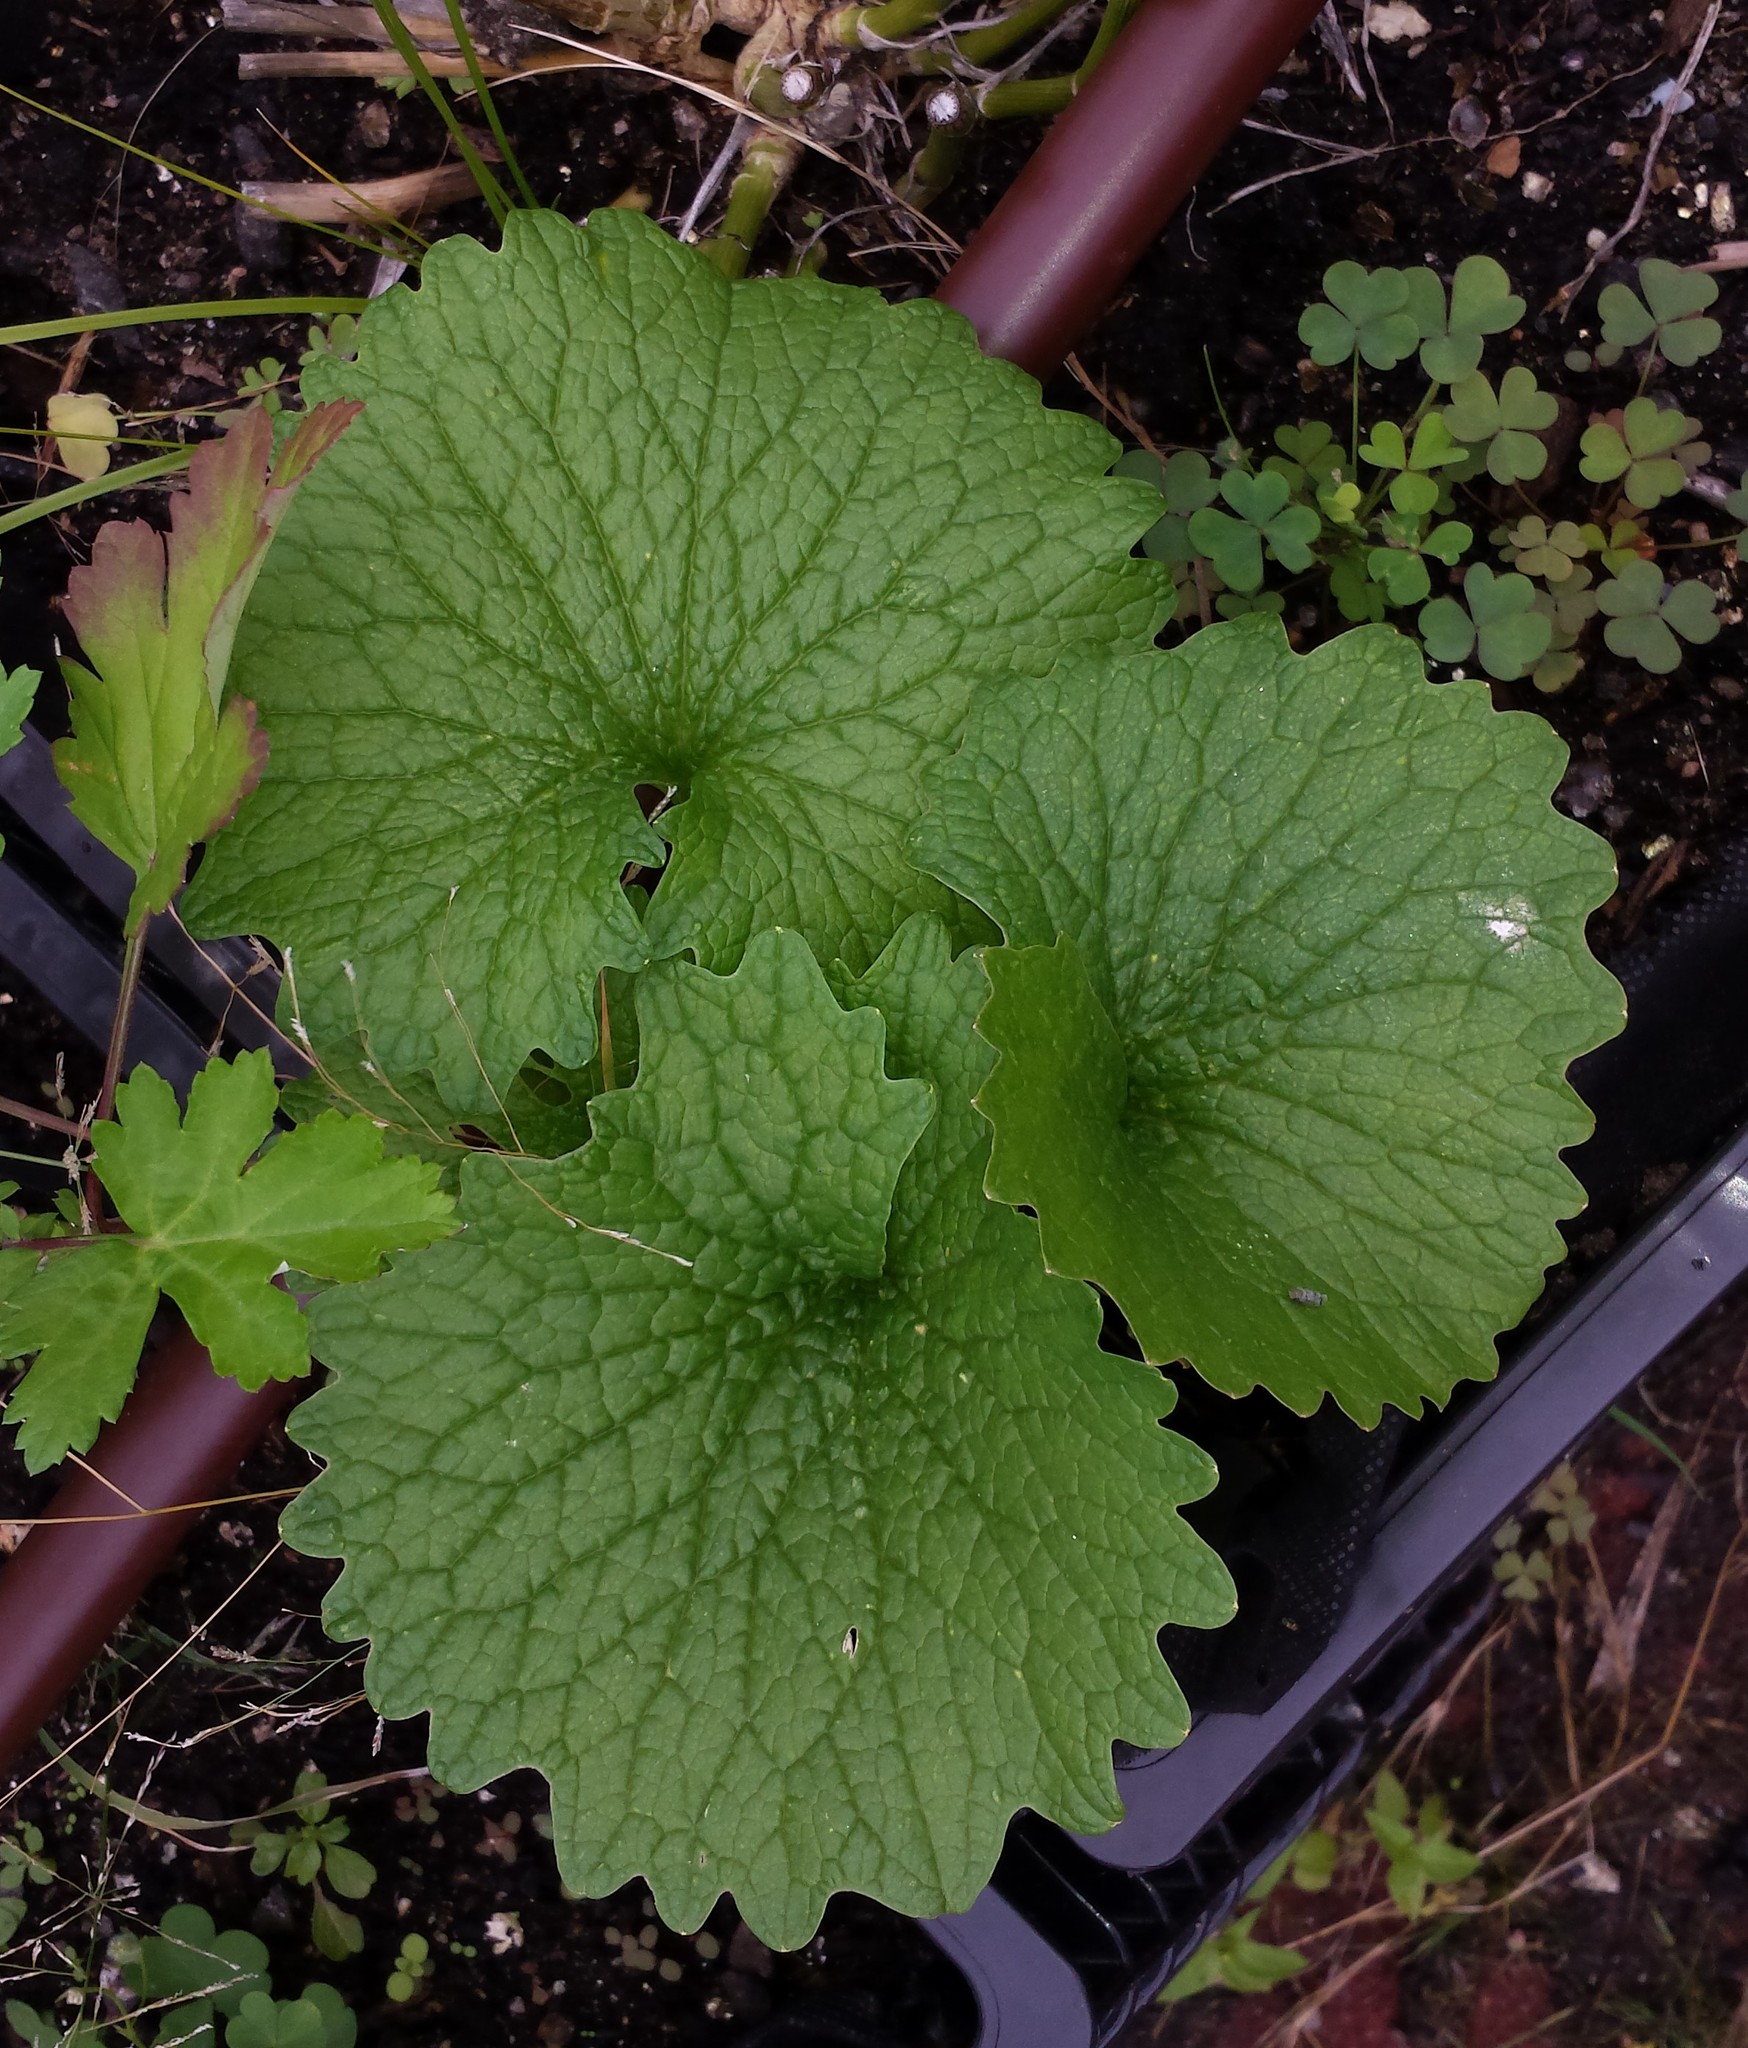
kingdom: Plantae
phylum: Tracheophyta
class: Magnoliopsida
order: Brassicales
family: Brassicaceae
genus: Alliaria
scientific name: Alliaria petiolata
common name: Garlic mustard
